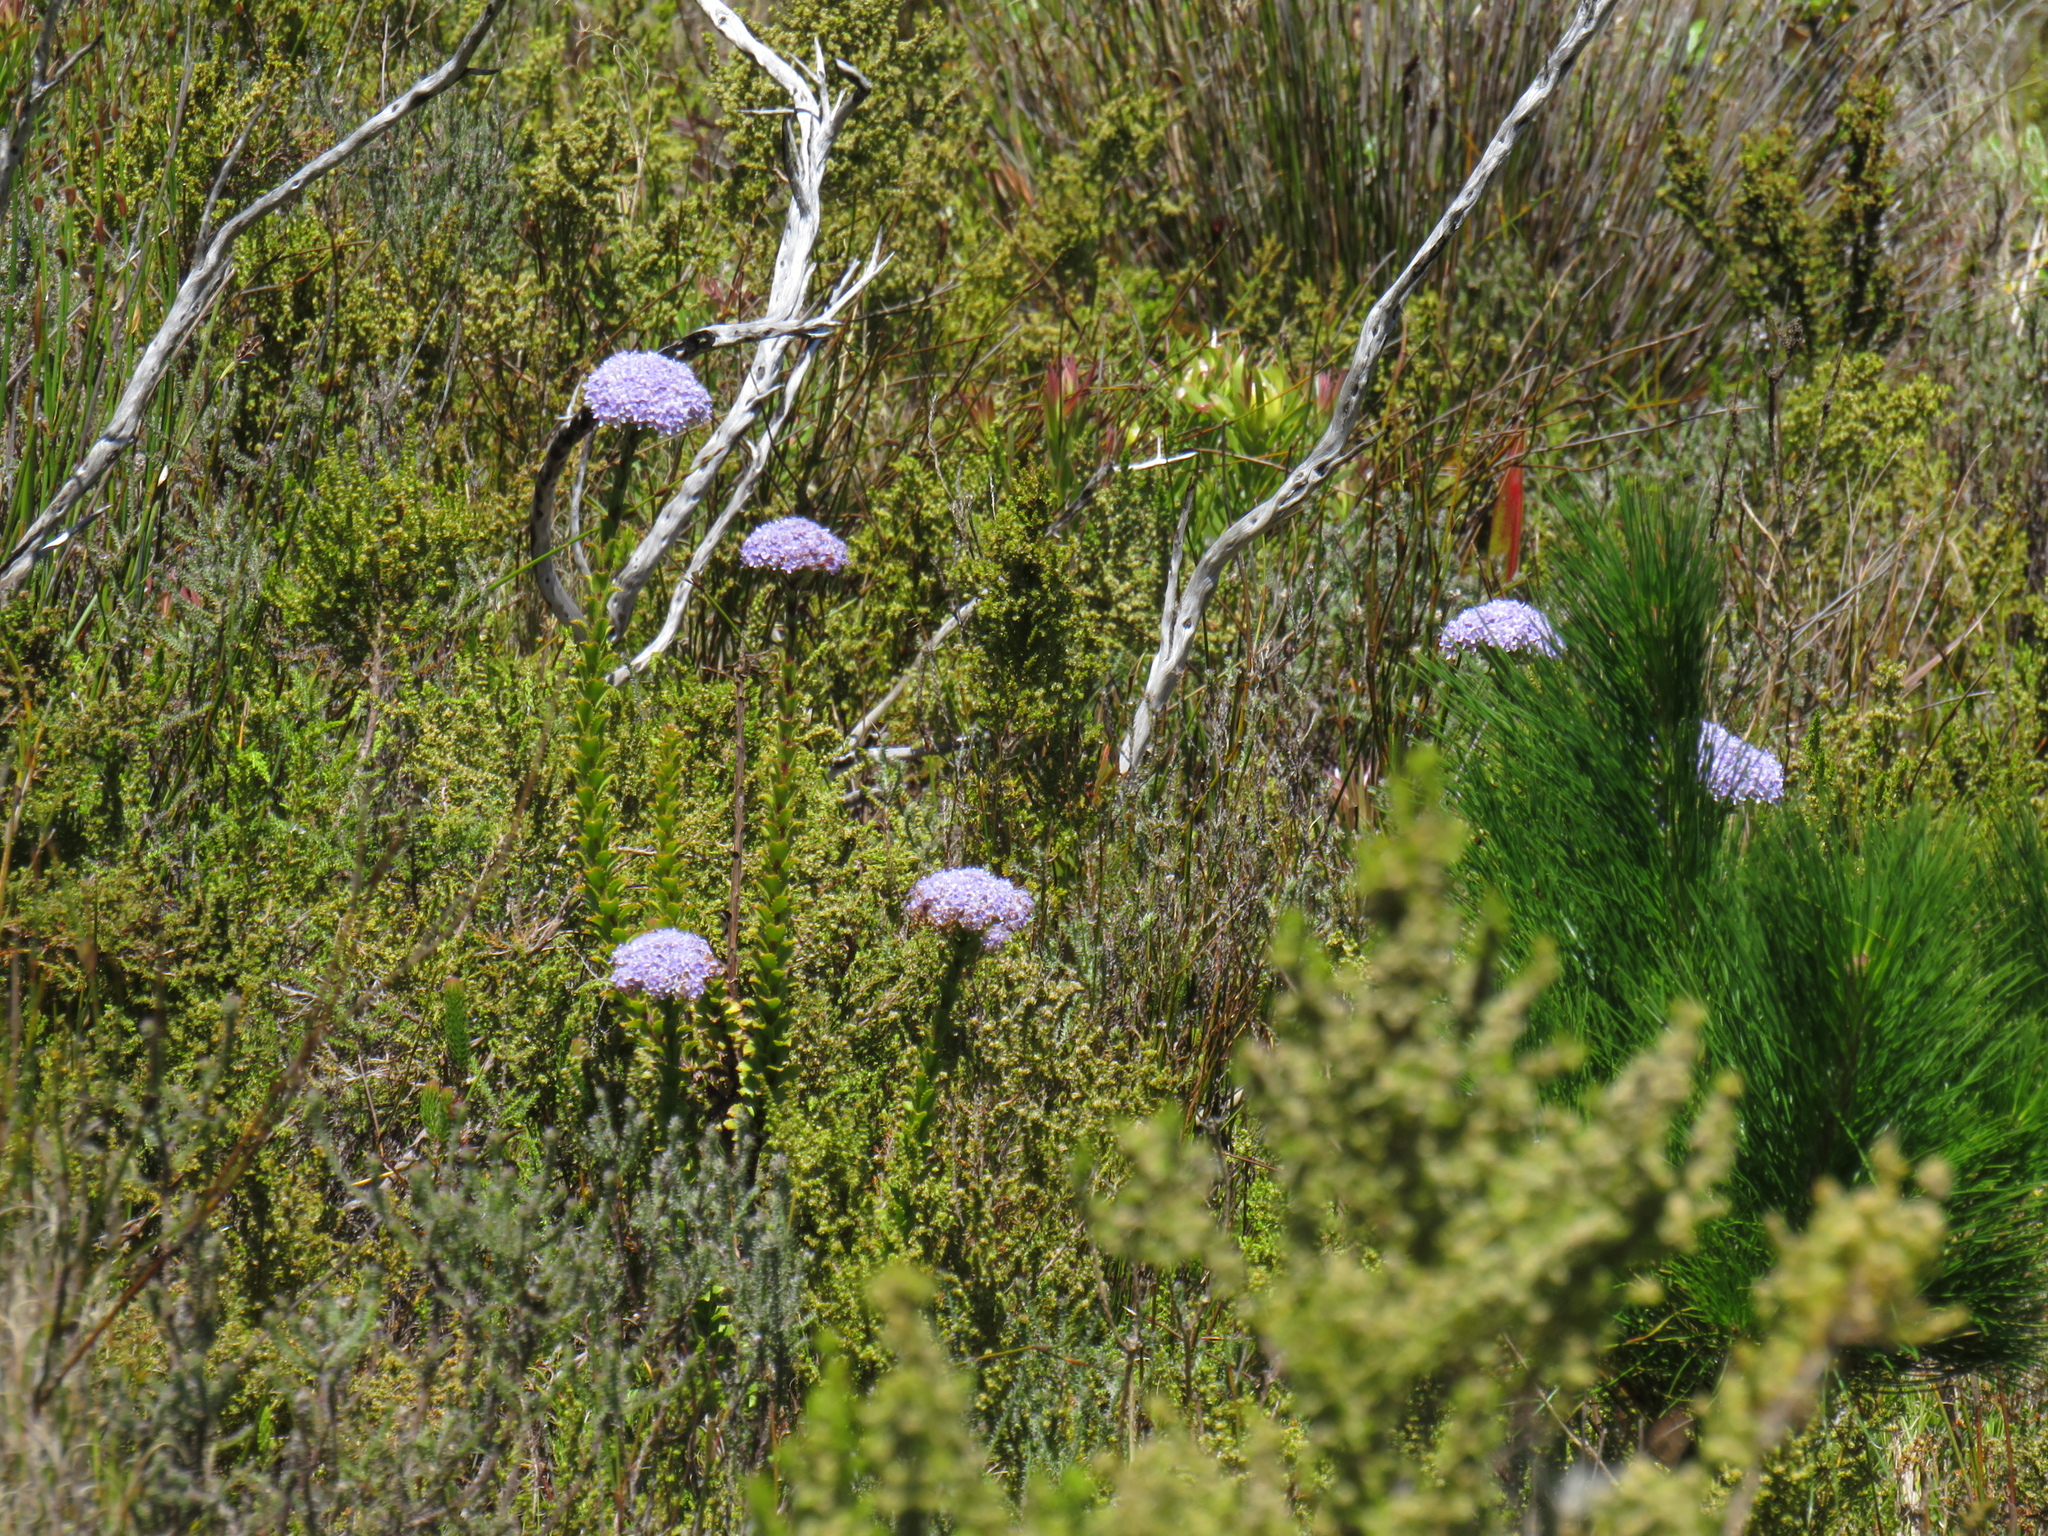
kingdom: Plantae
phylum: Tracheophyta
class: Magnoliopsida
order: Lamiales
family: Scrophulariaceae
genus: Pseudoselago
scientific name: Pseudoselago serrata
